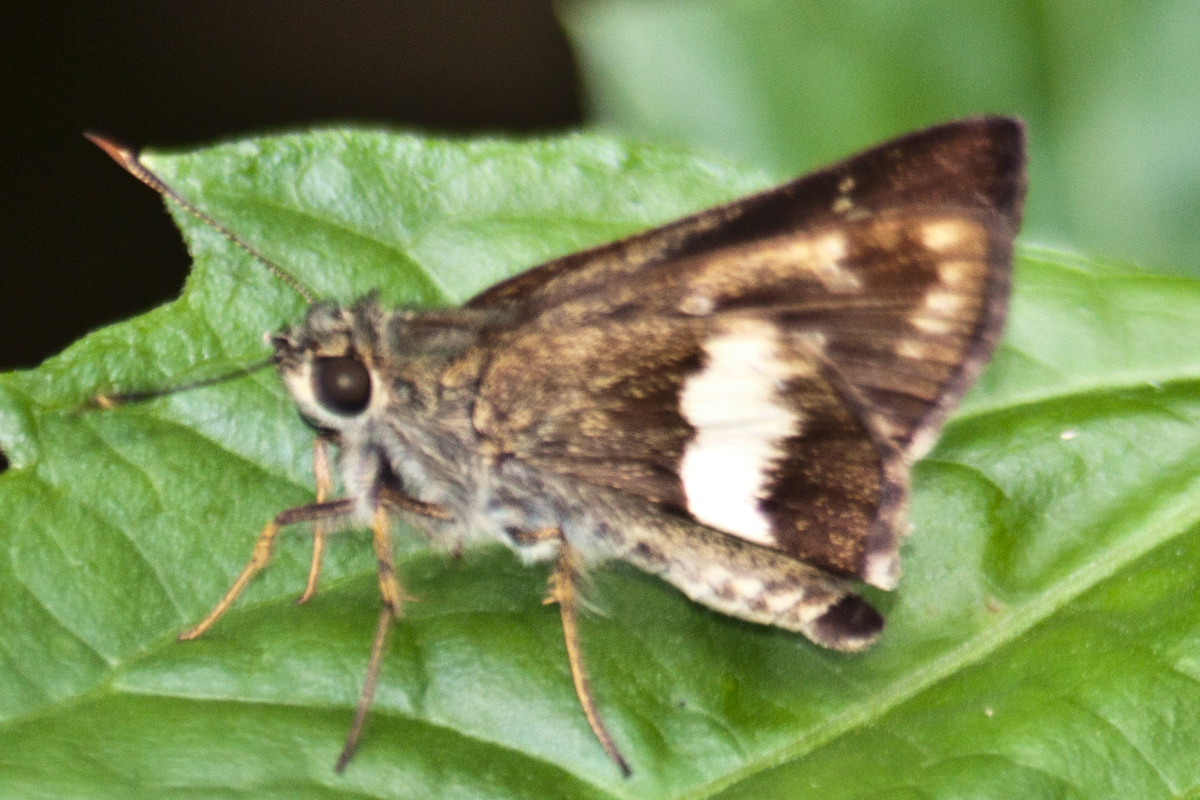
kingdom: Animalia
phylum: Arthropoda
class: Insecta
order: Lepidoptera
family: Hesperiidae
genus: Halpe
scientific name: Halpe zola
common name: Long-banded ace
